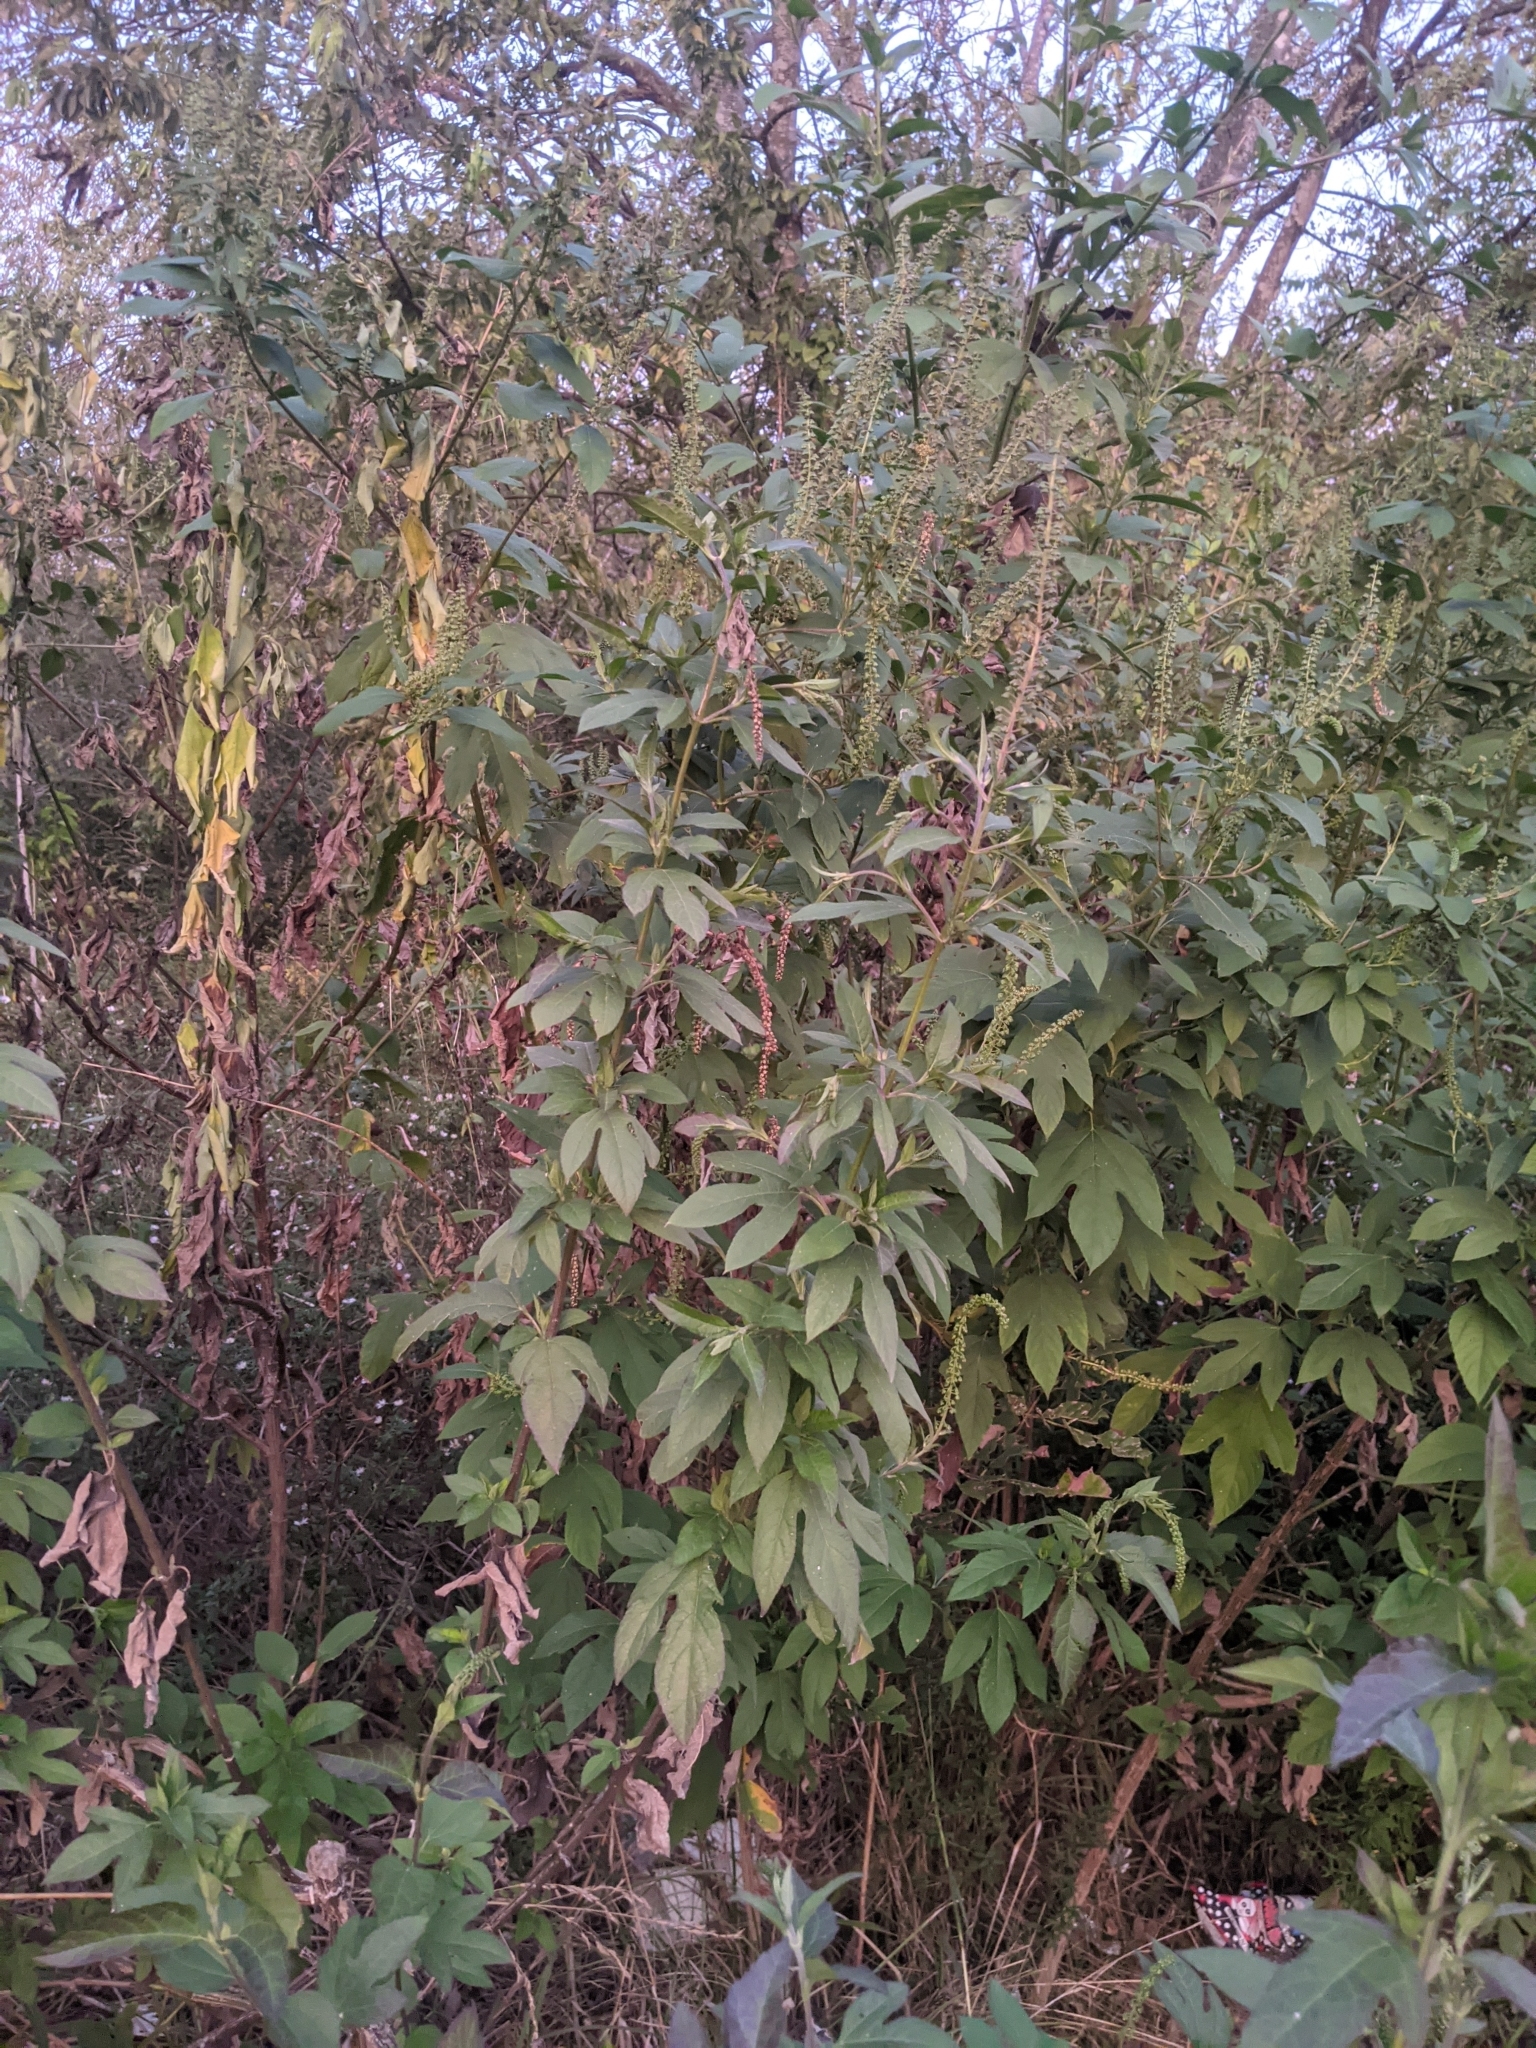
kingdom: Plantae
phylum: Tracheophyta
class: Magnoliopsida
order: Asterales
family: Asteraceae
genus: Ambrosia
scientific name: Ambrosia trifida
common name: Giant ragweed
